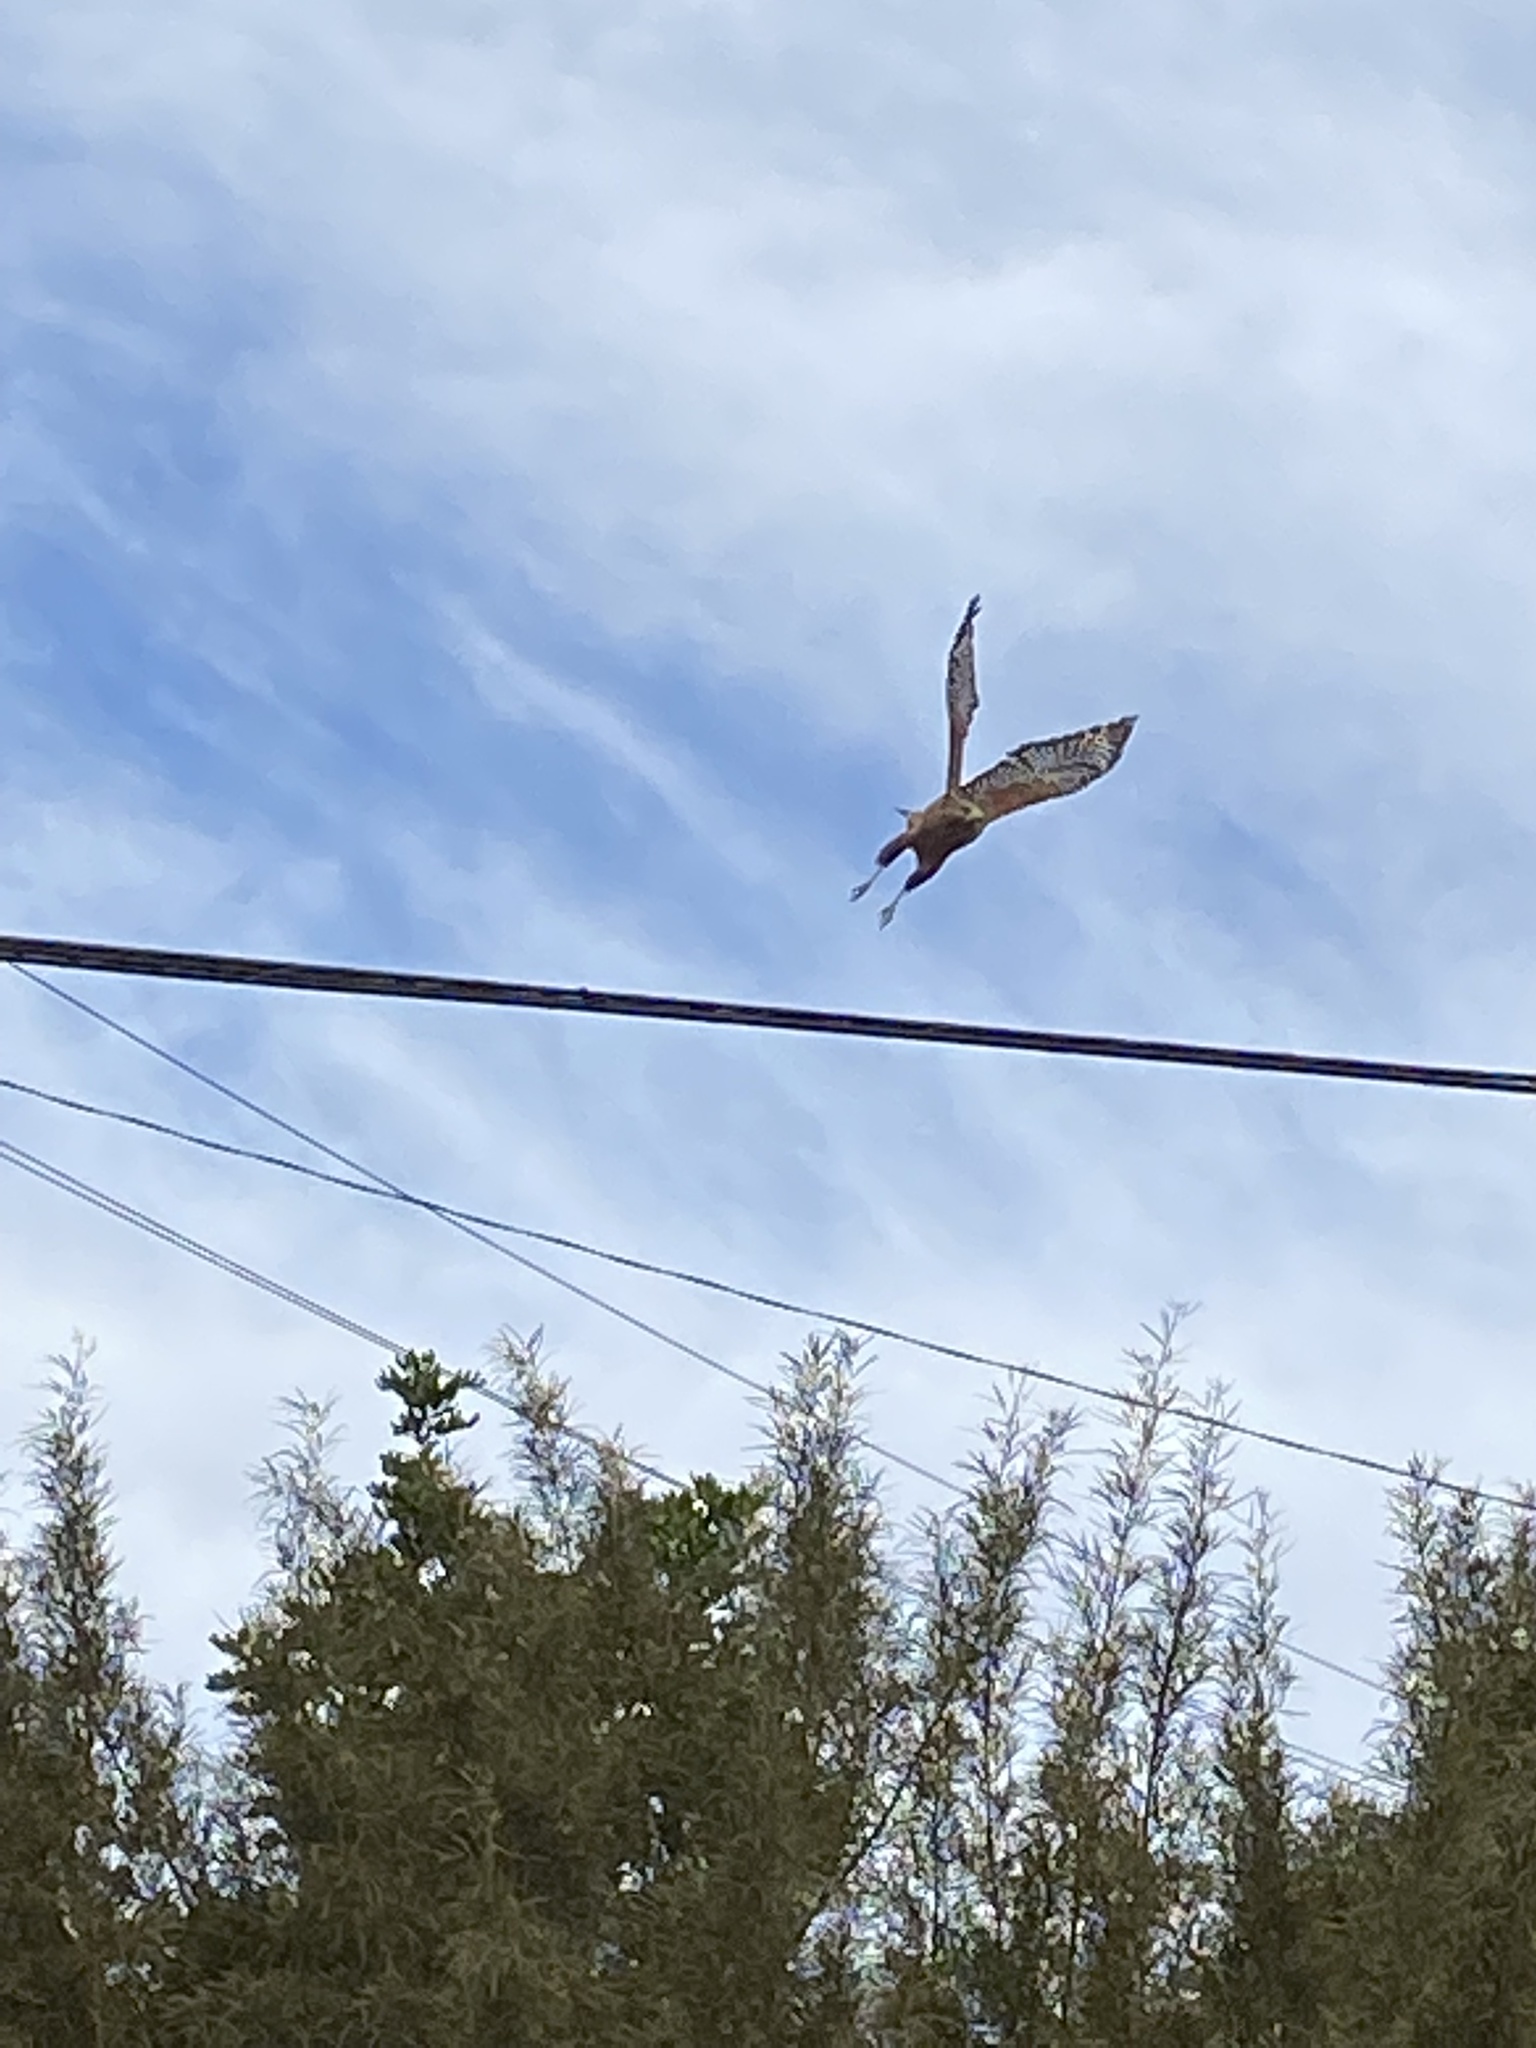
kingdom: Animalia
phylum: Chordata
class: Aves
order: Accipitriformes
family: Accipitridae
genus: Buteo
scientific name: Buteo lineatus
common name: Red-shouldered hawk
